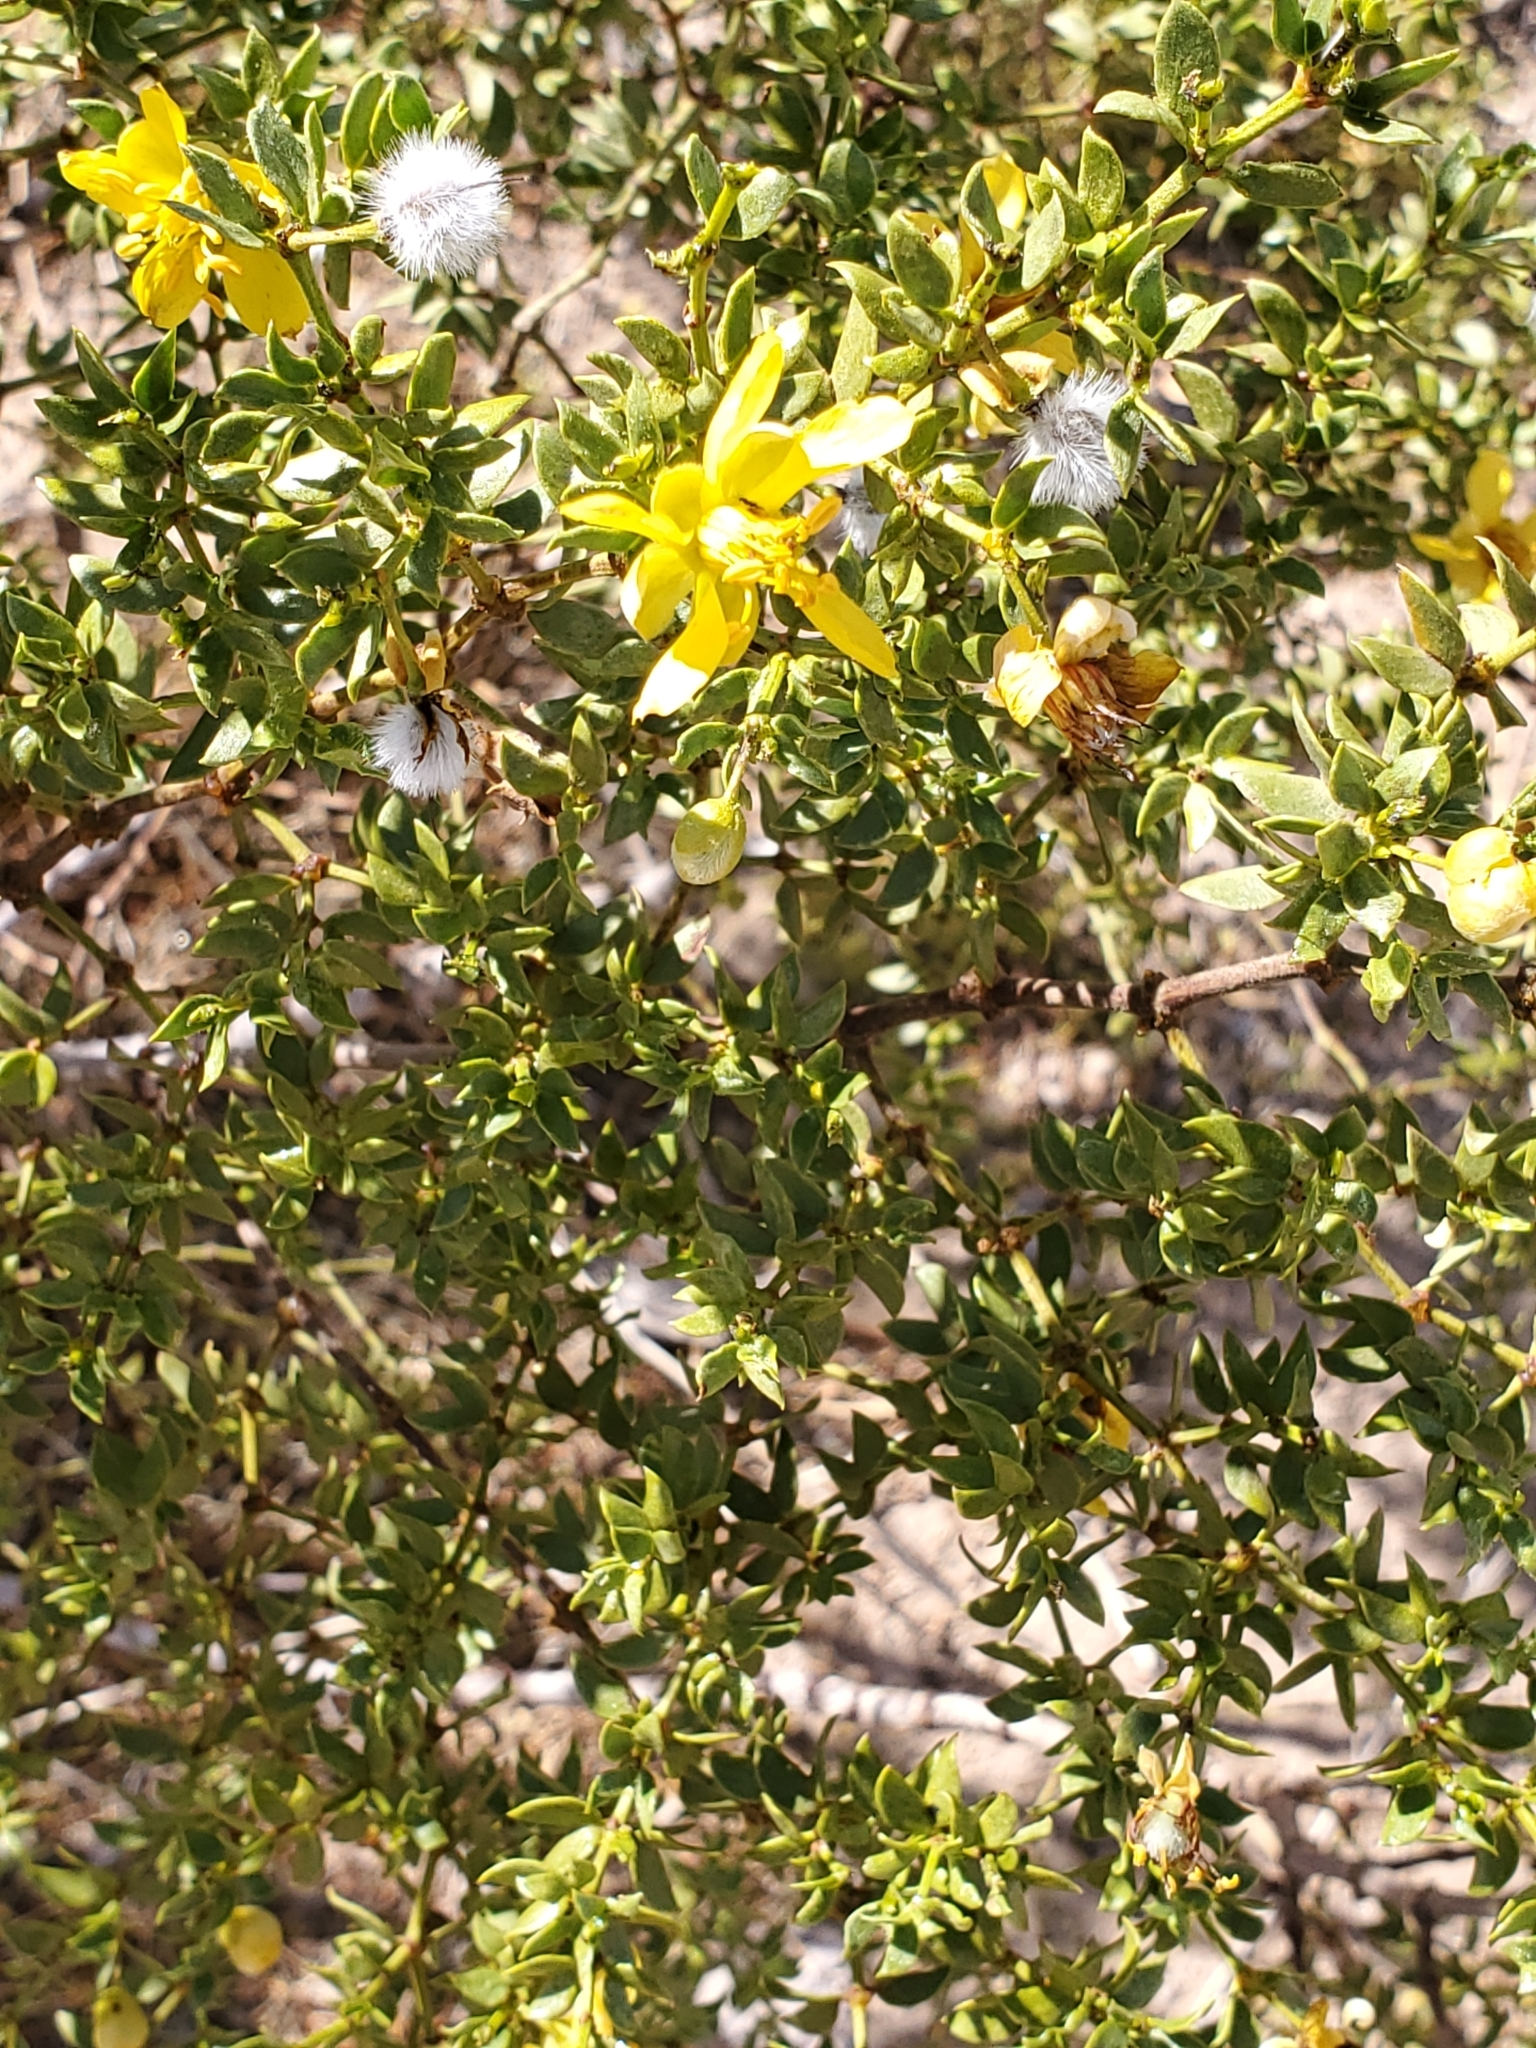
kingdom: Plantae
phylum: Tracheophyta
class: Magnoliopsida
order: Zygophyllales
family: Zygophyllaceae
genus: Larrea
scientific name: Larrea tridentata
